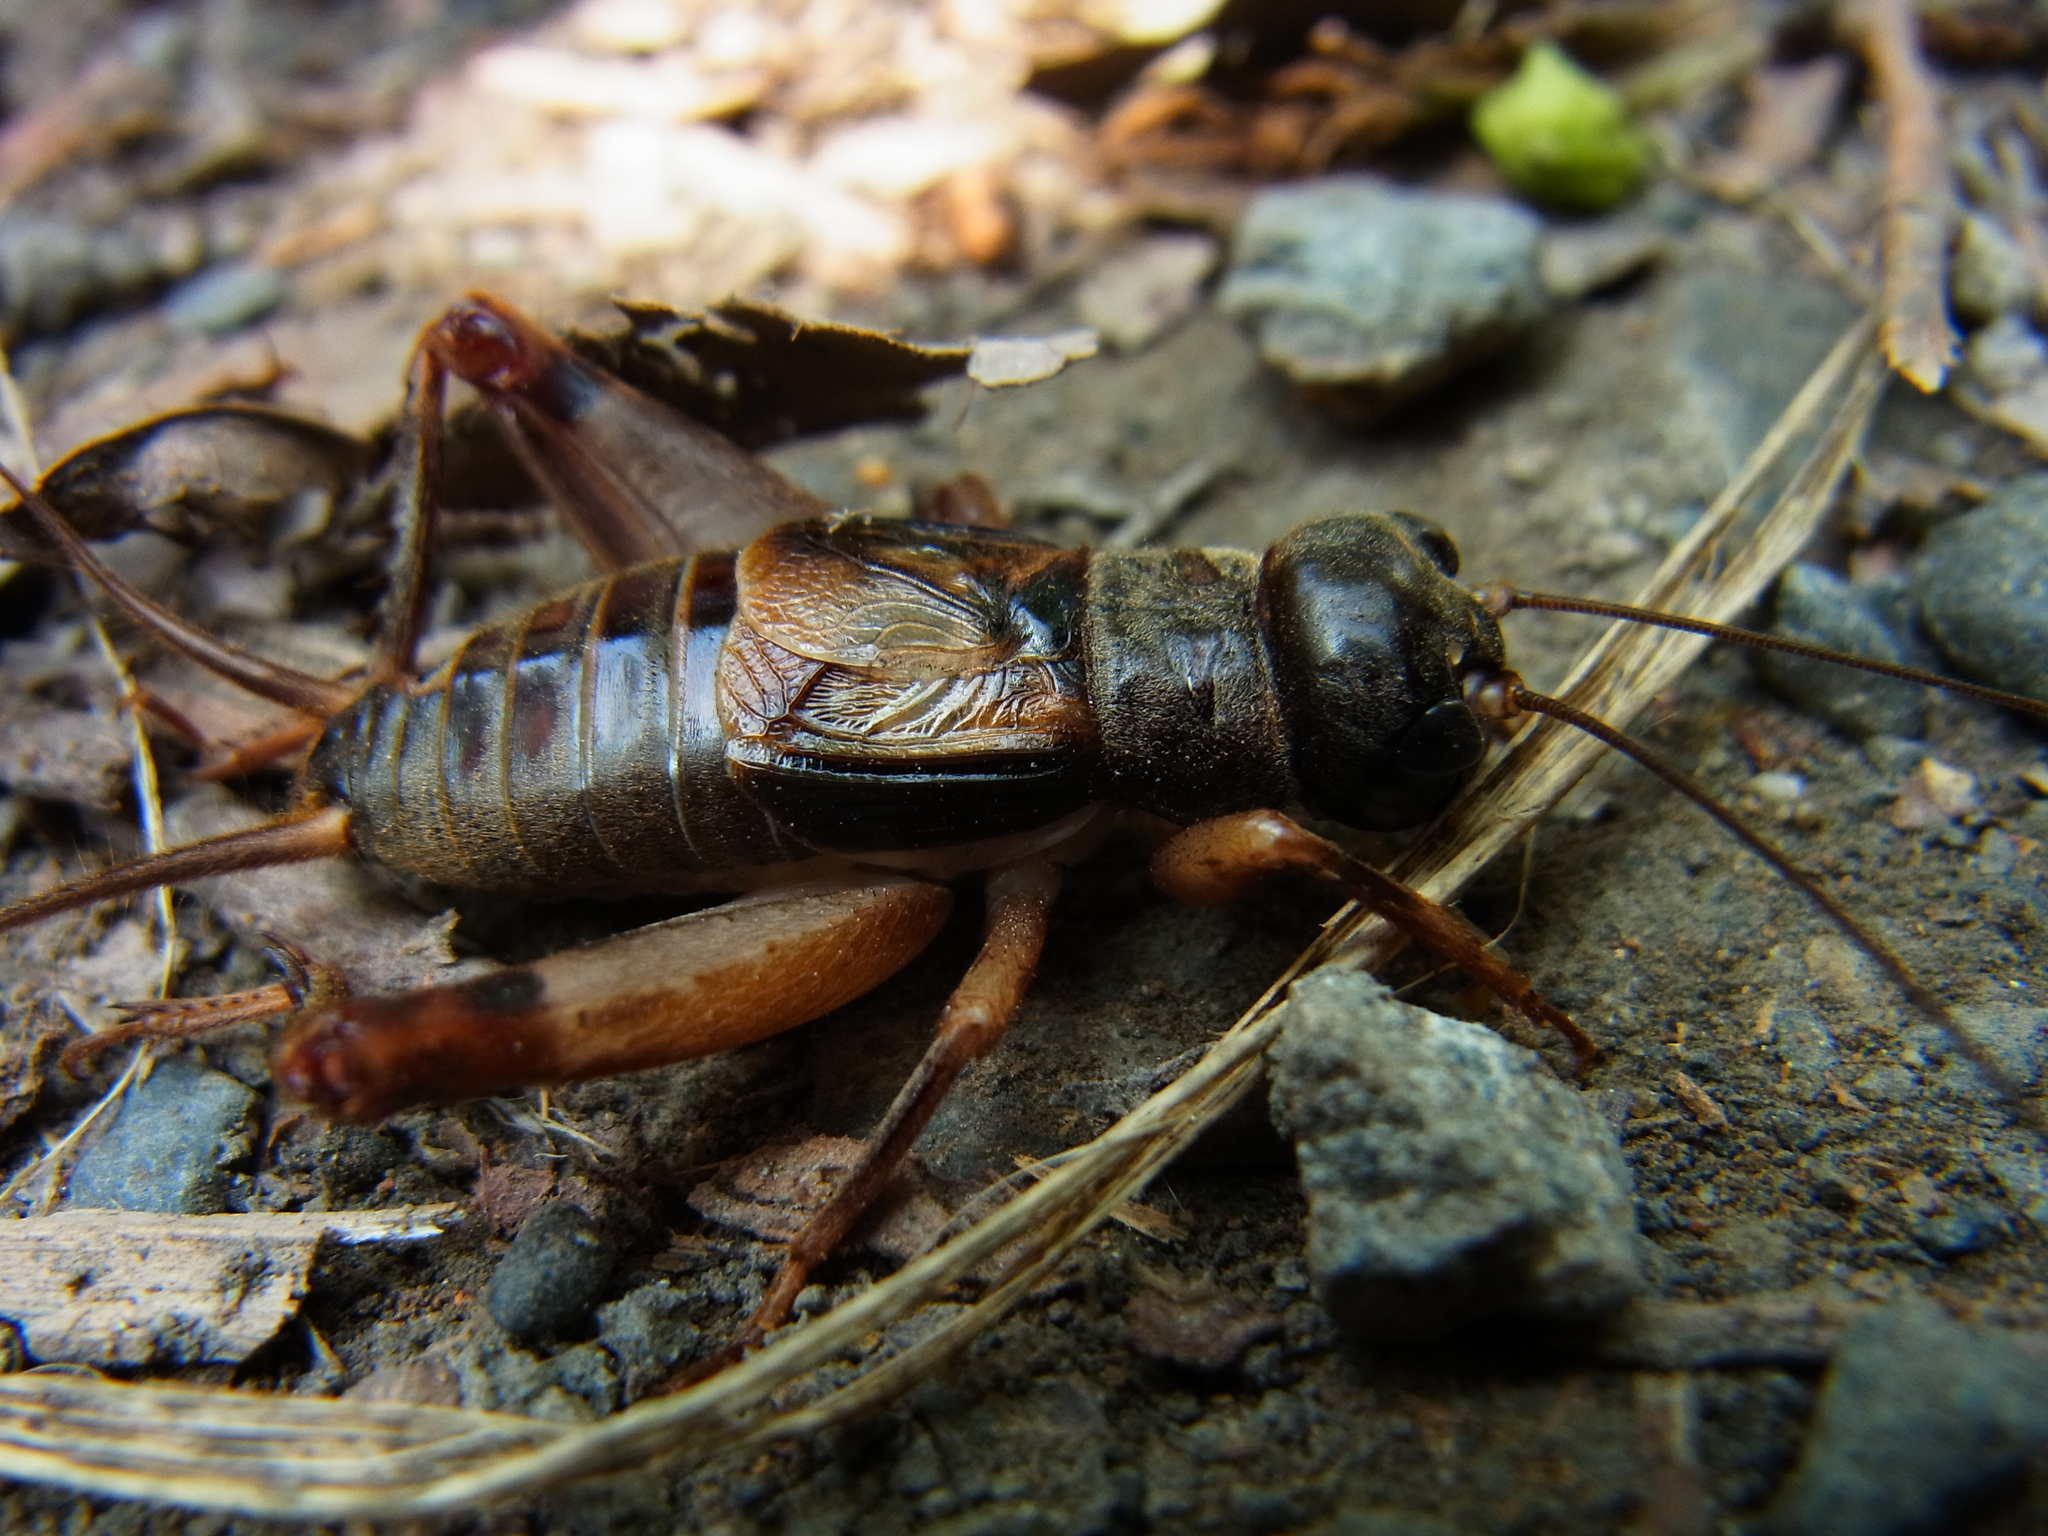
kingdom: Animalia
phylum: Arthropoda
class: Insecta
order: Orthoptera
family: Gryllidae
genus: Duolandrevus
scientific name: Duolandrevus ivani
